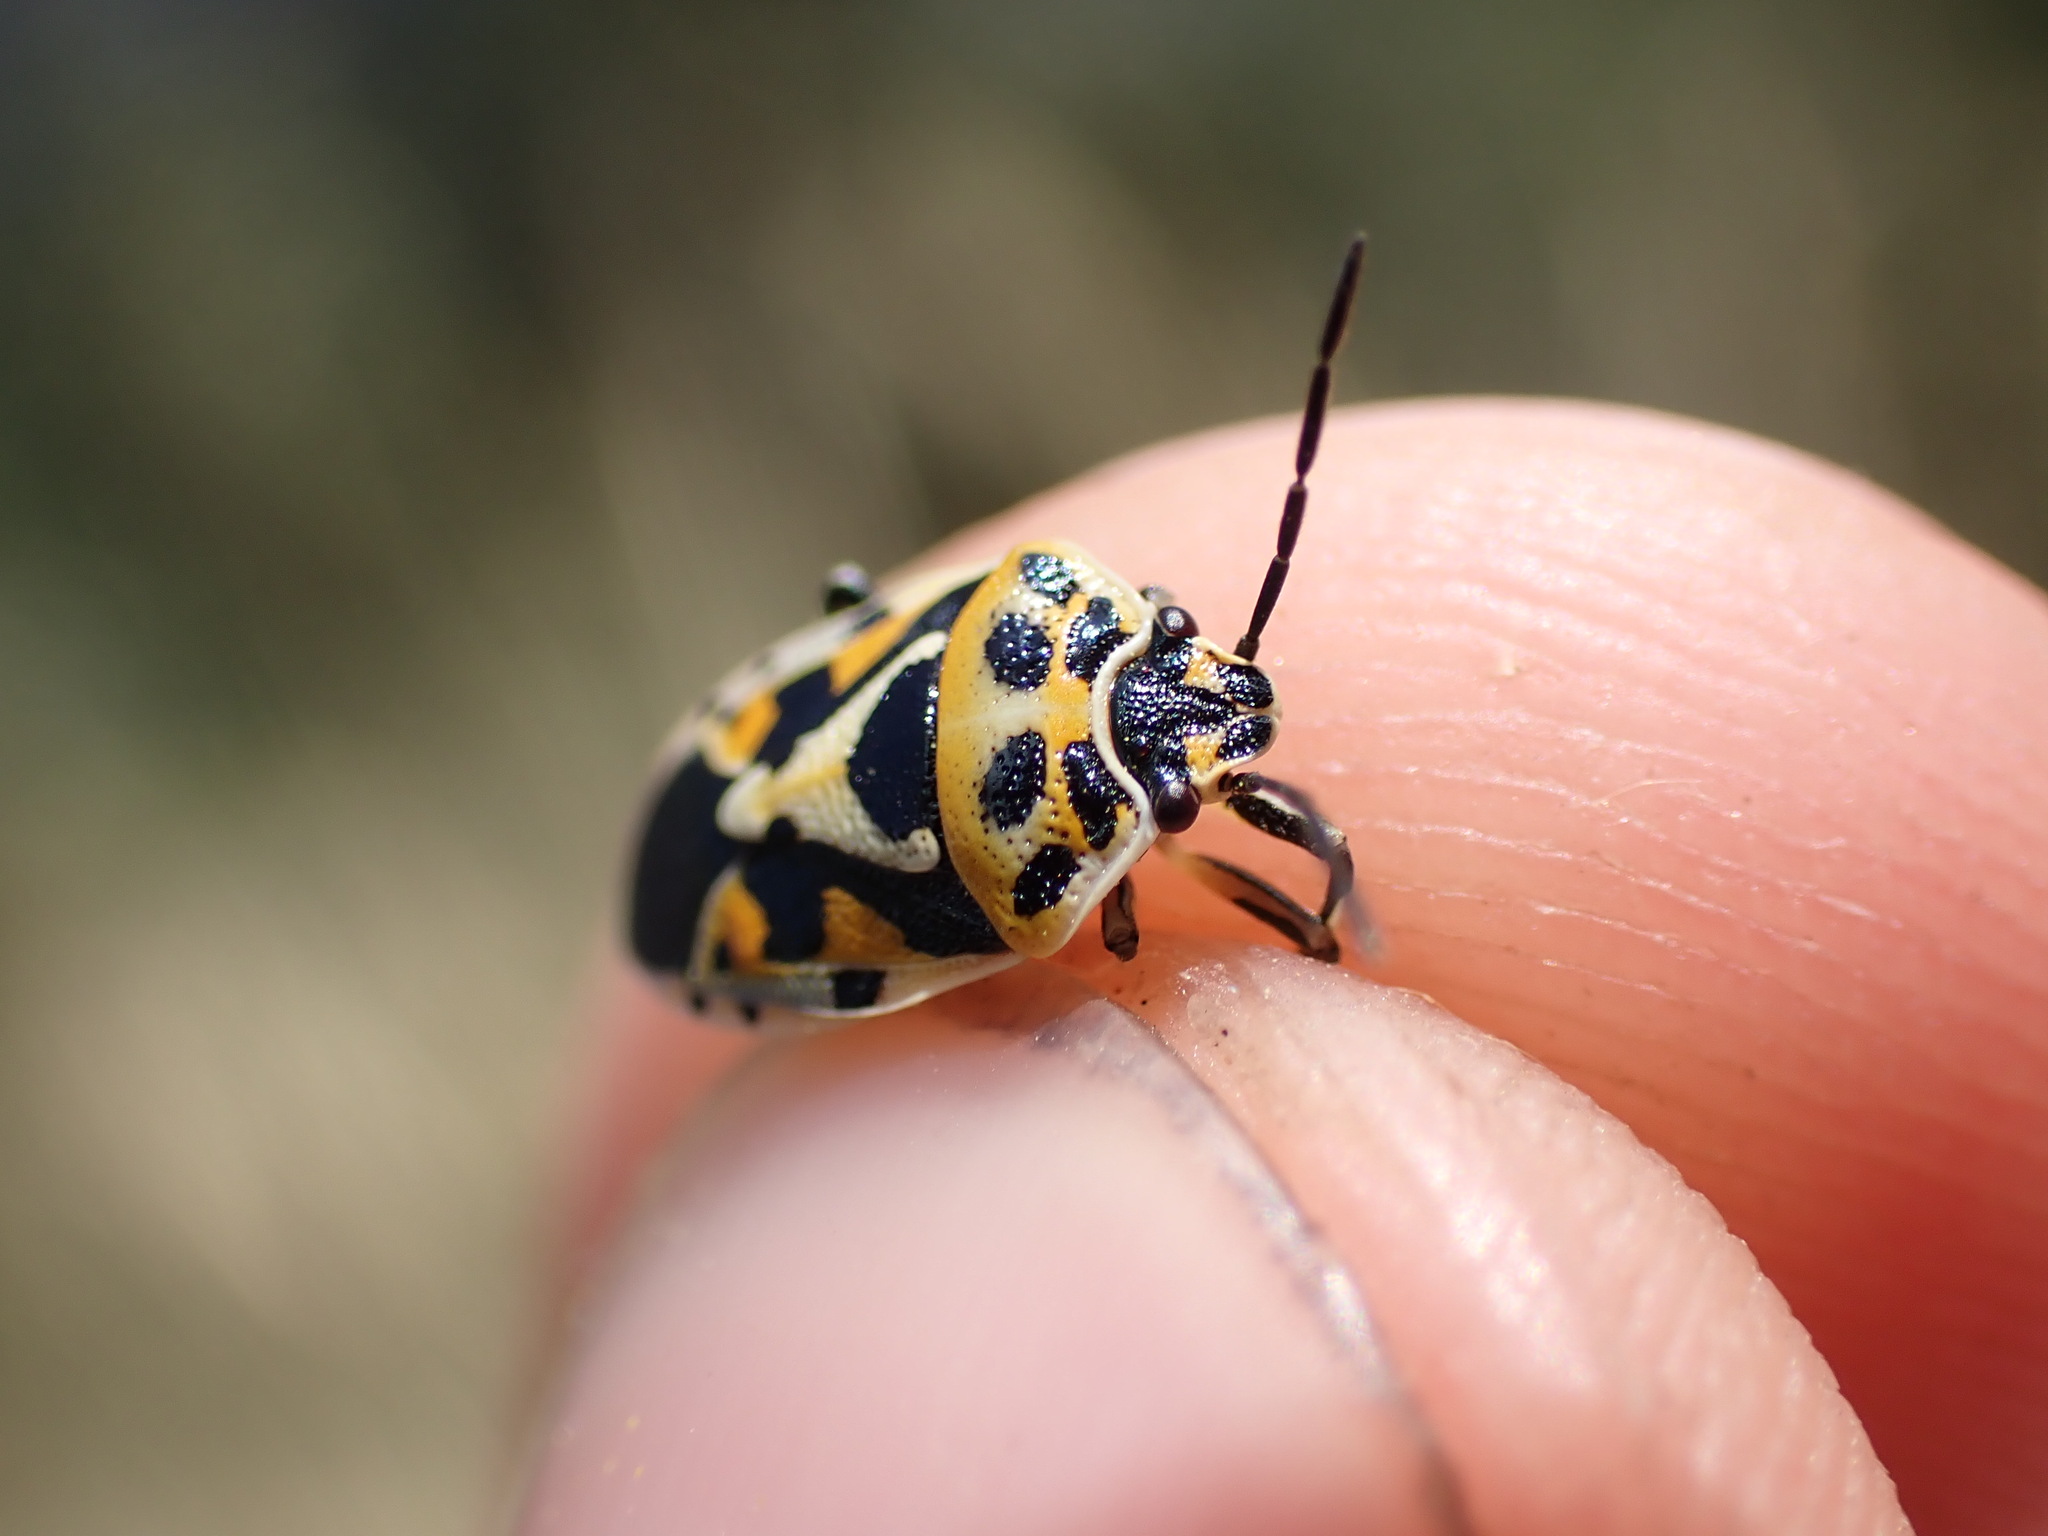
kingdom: Animalia
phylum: Arthropoda
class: Insecta
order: Hemiptera
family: Pentatomidae
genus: Eurydema
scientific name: Eurydema ornata
